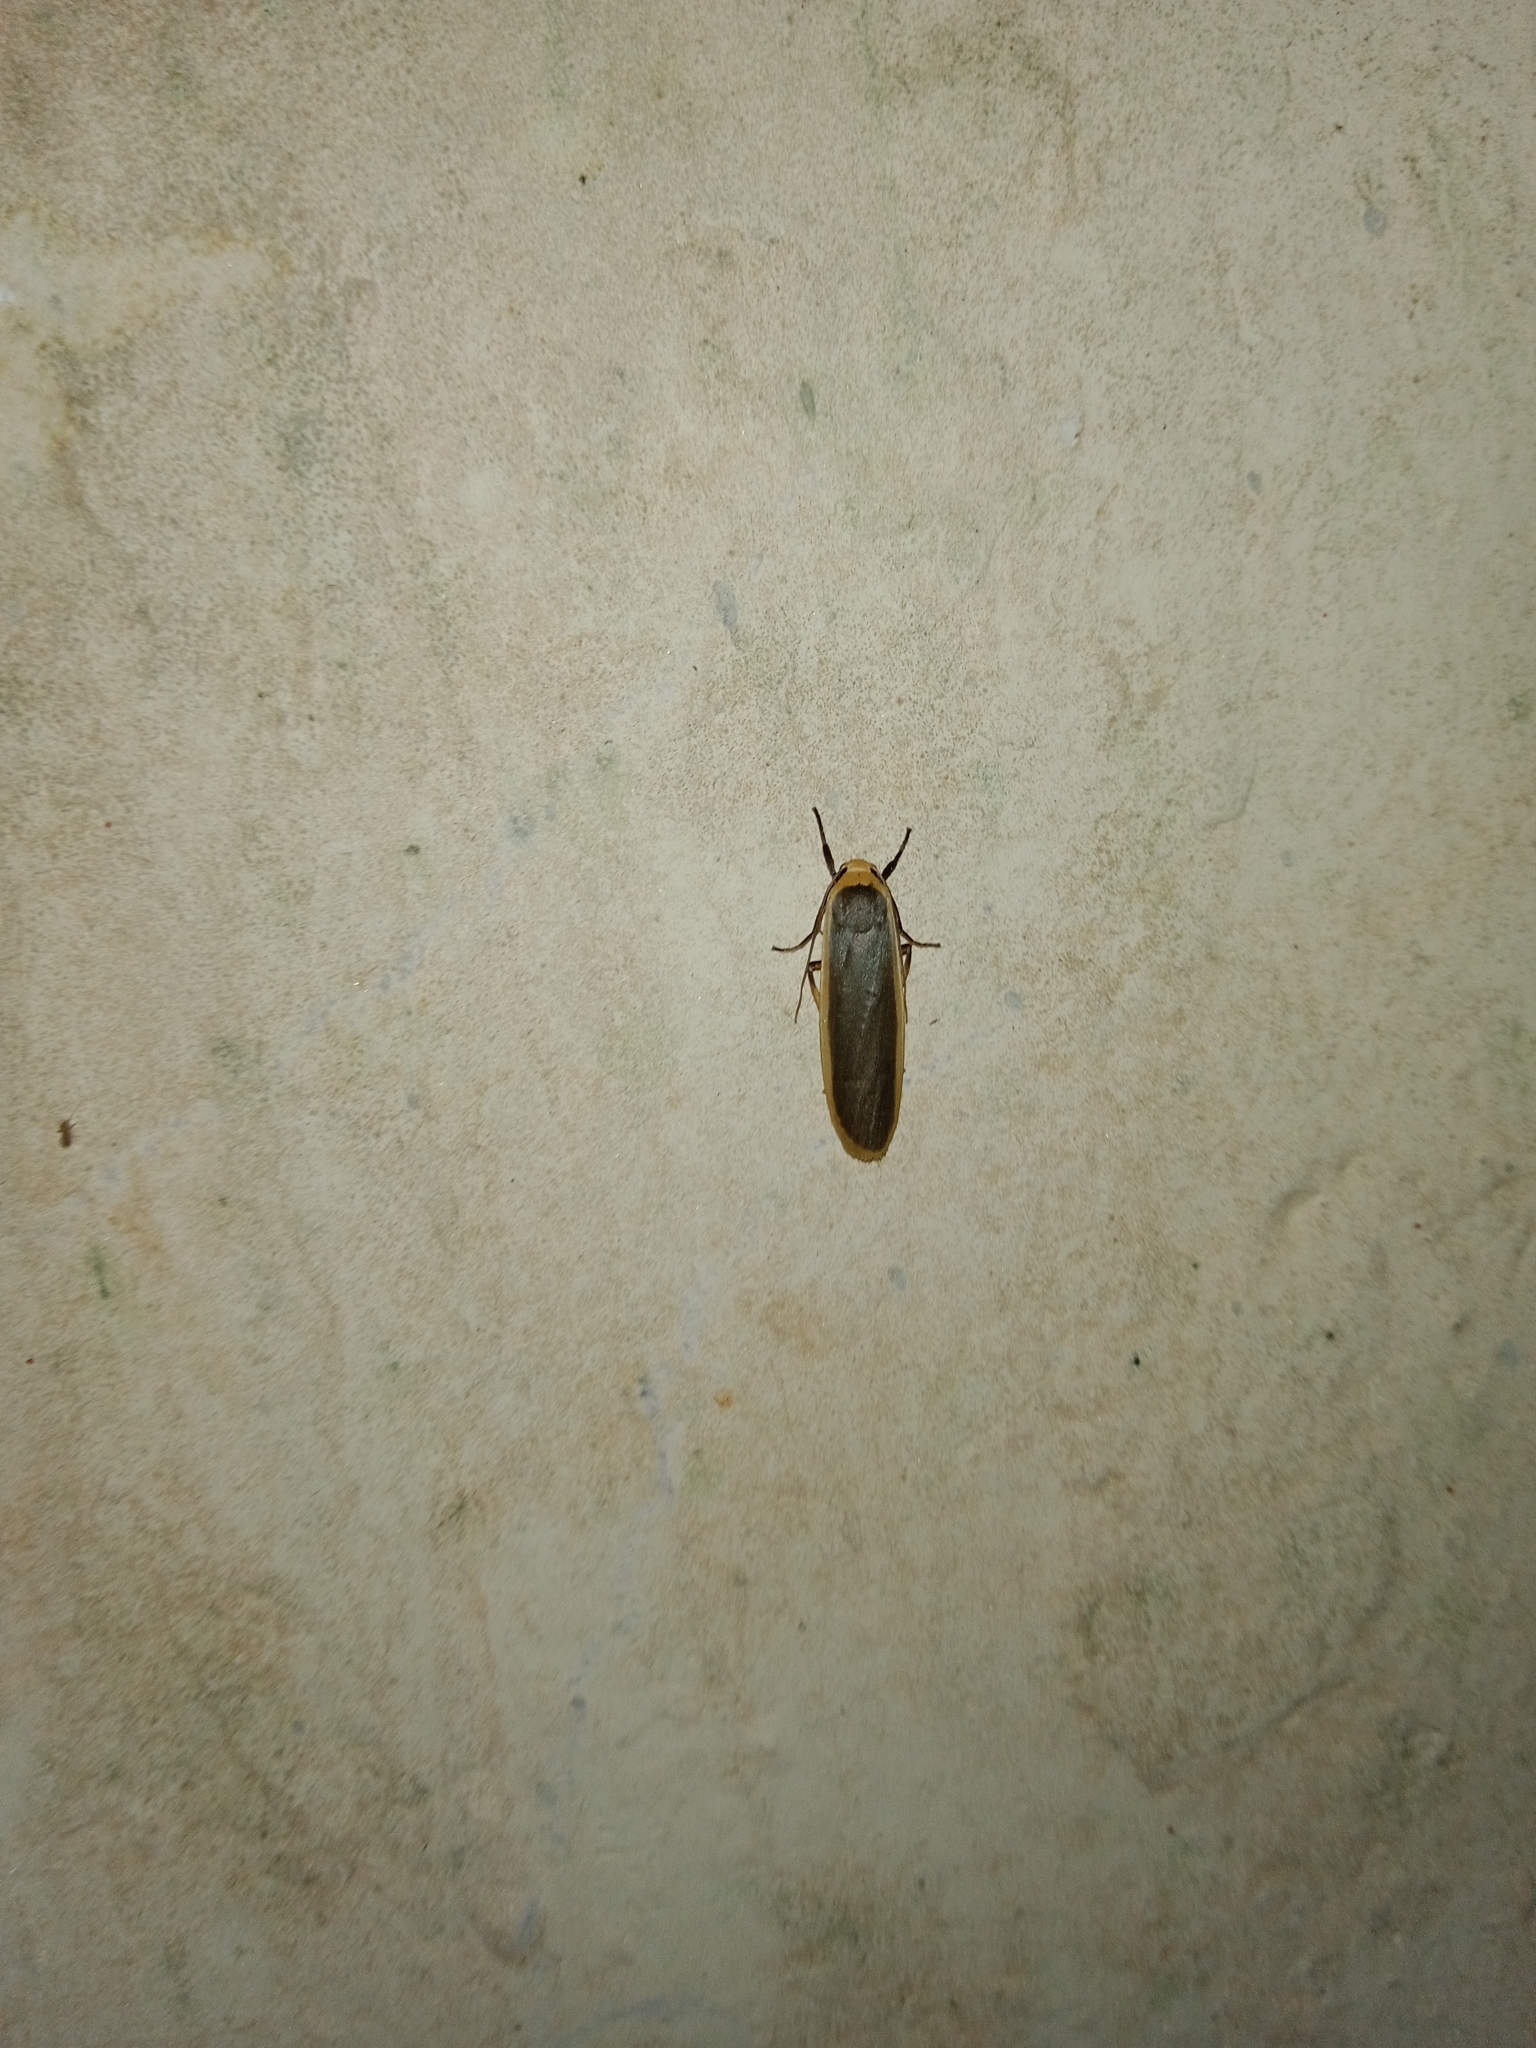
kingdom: Animalia
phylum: Arthropoda
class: Insecta
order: Lepidoptera
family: Erebidae
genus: Brunia
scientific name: Brunia antica
